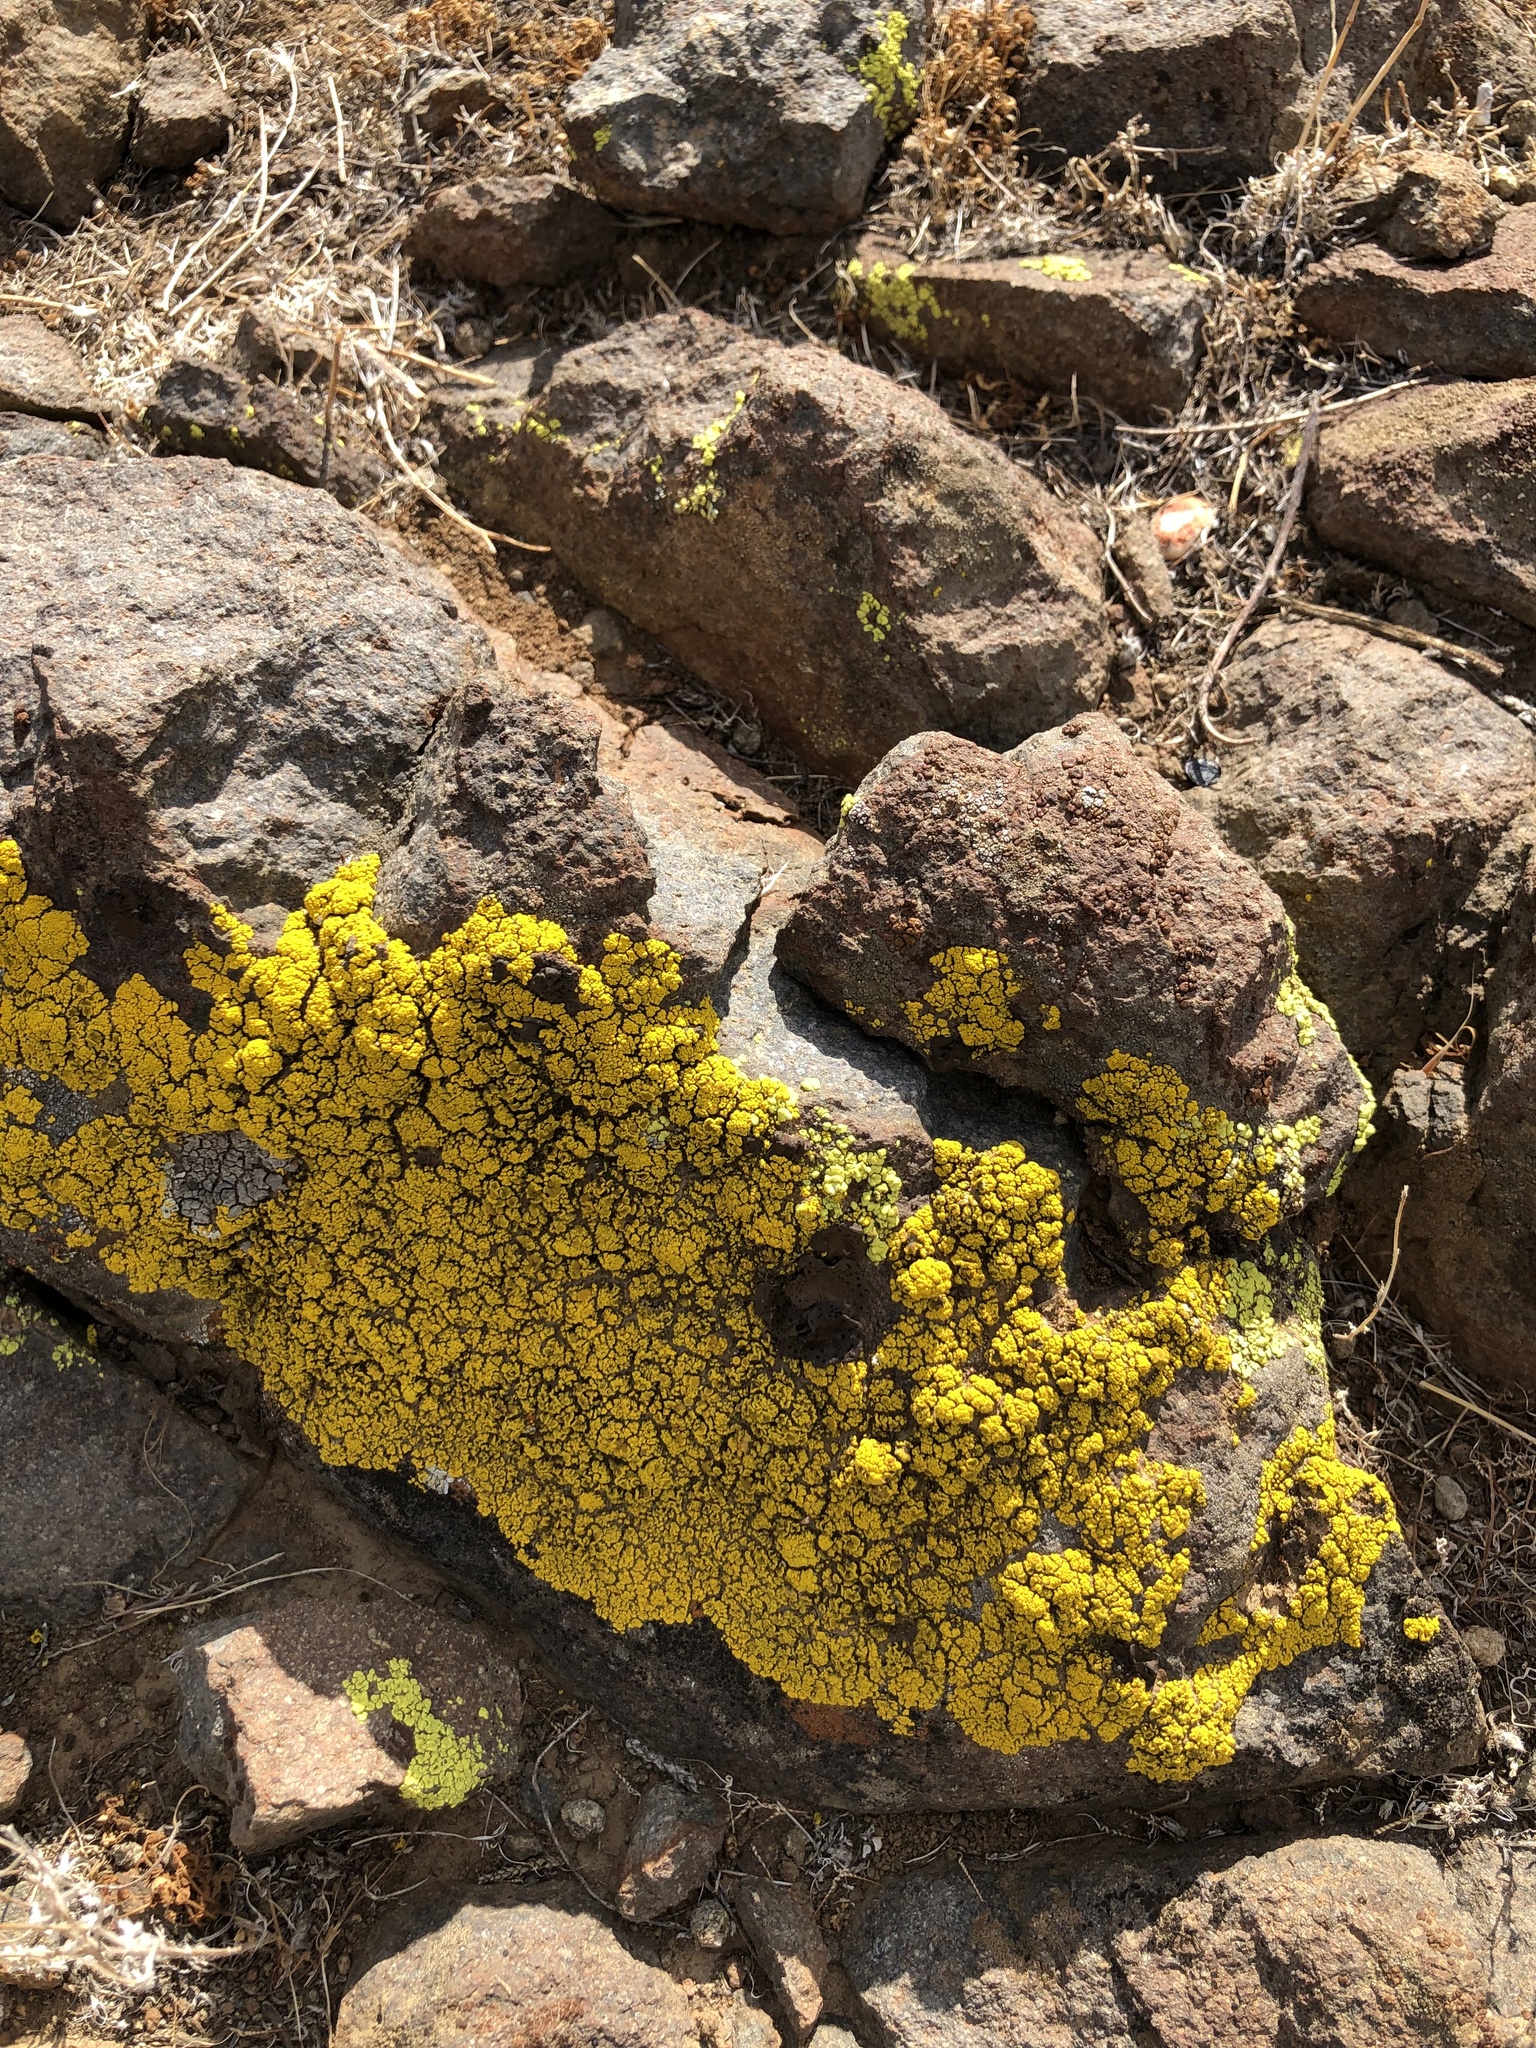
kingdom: Fungi
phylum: Ascomycota
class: Candelariomycetes
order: Candelariales
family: Candelariaceae
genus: Candelariella
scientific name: Candelariella rosulans
